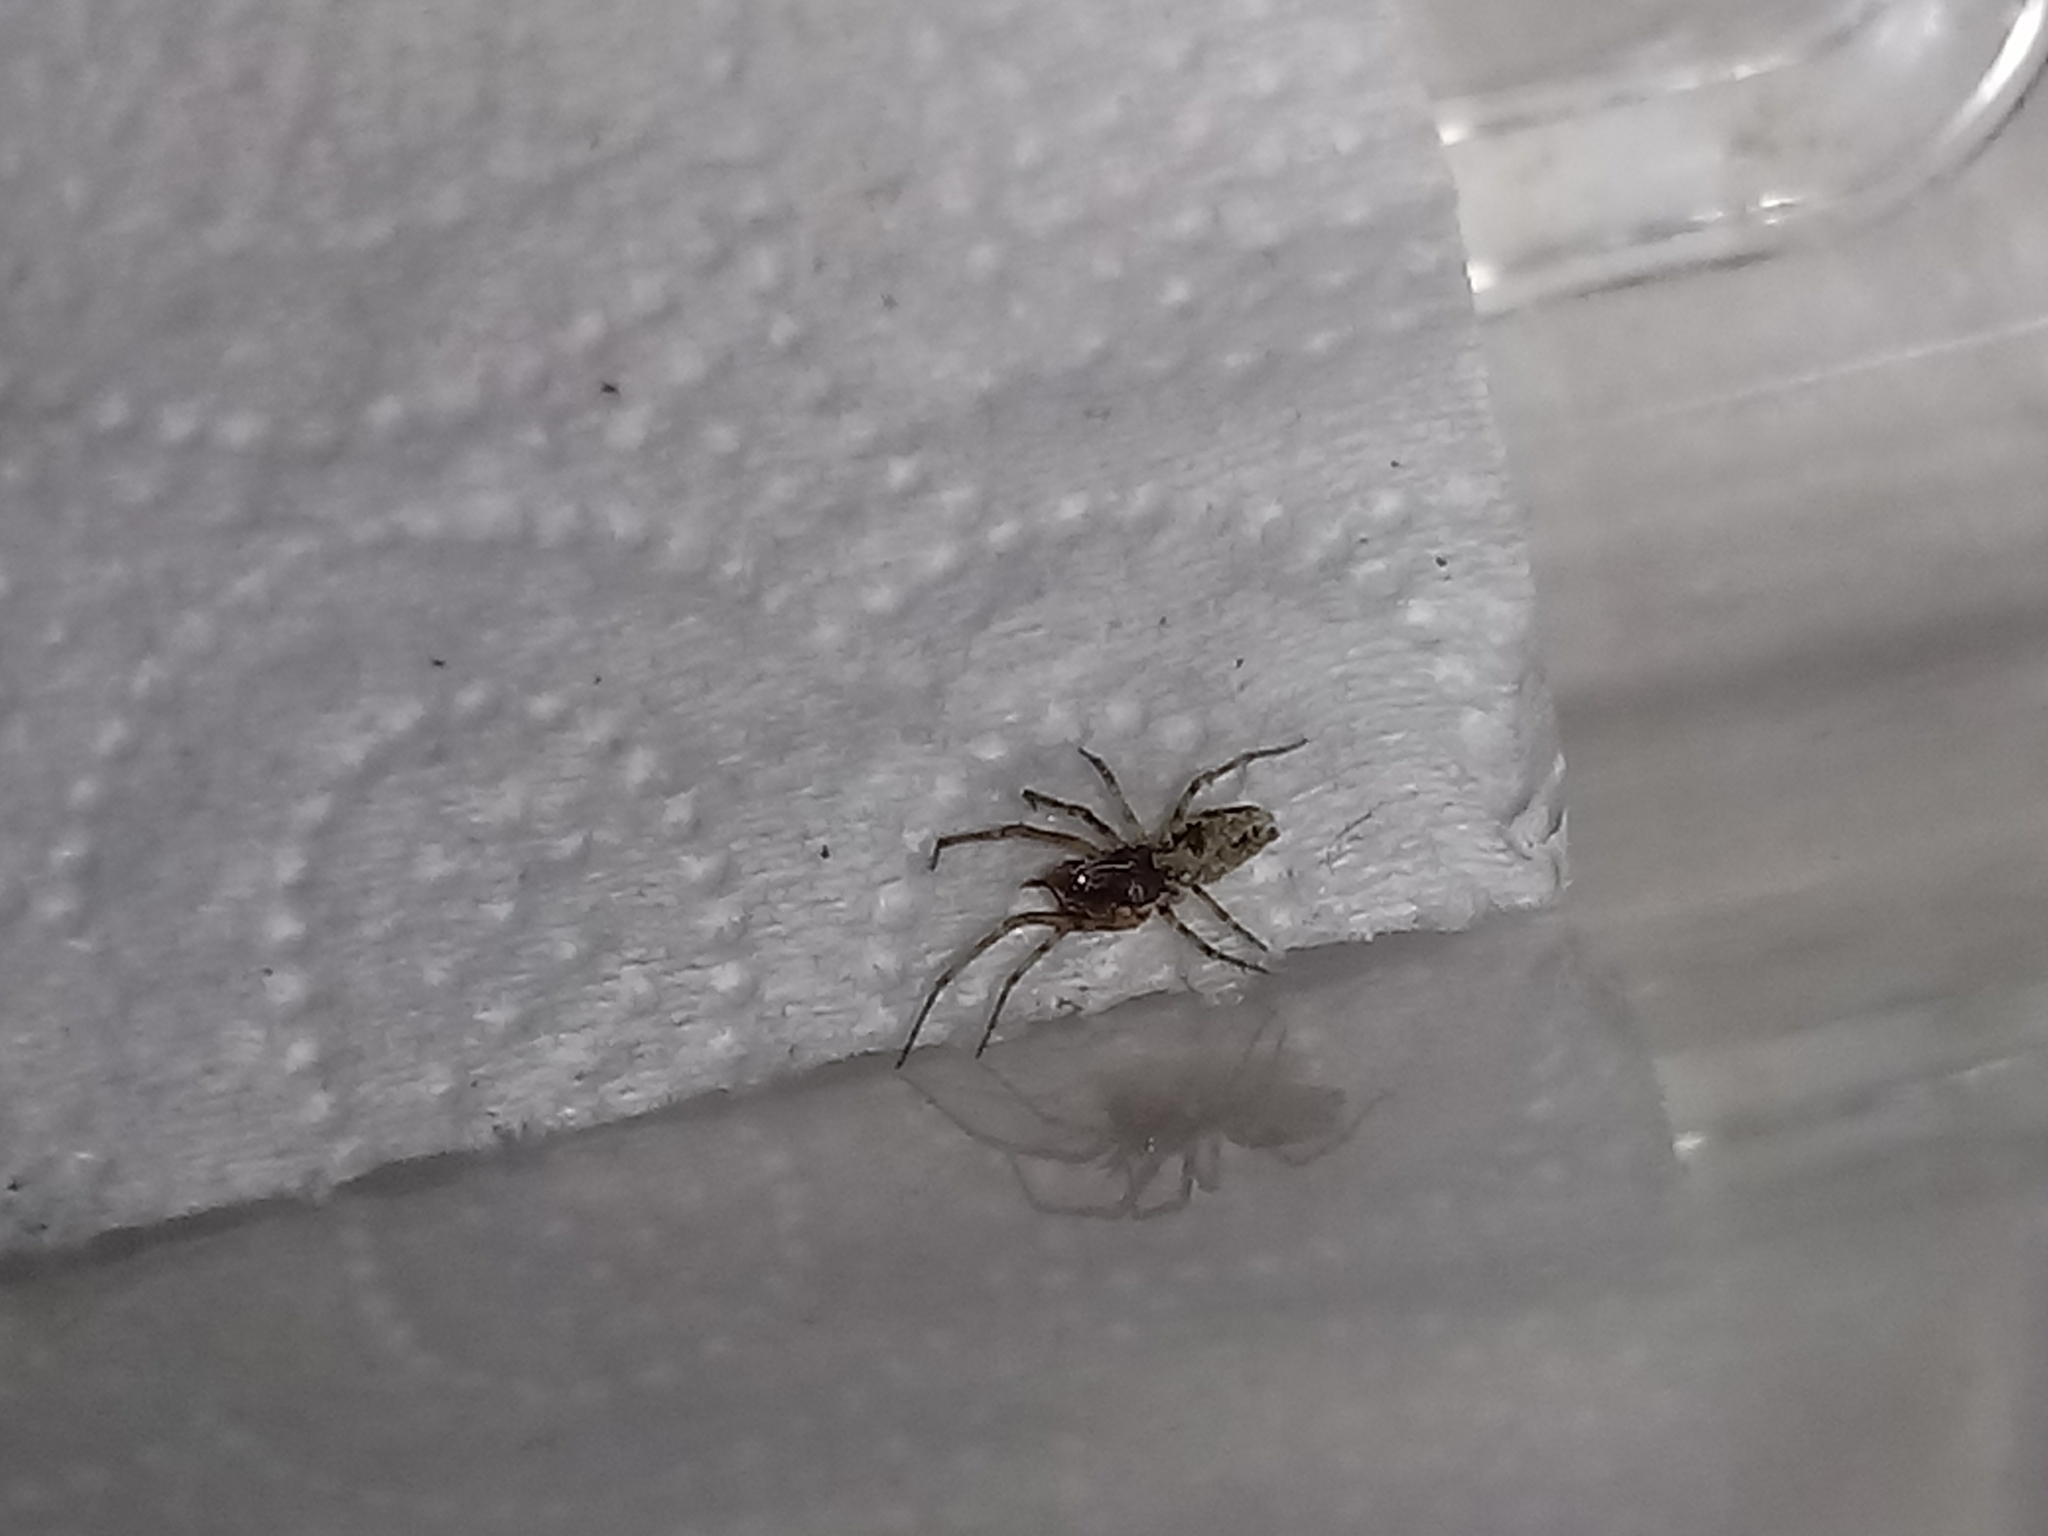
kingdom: Animalia
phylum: Arthropoda
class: Arachnida
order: Araneae
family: Dictynidae
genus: Dictyna
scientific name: Dictyna calcarata
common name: Mesh weaver
